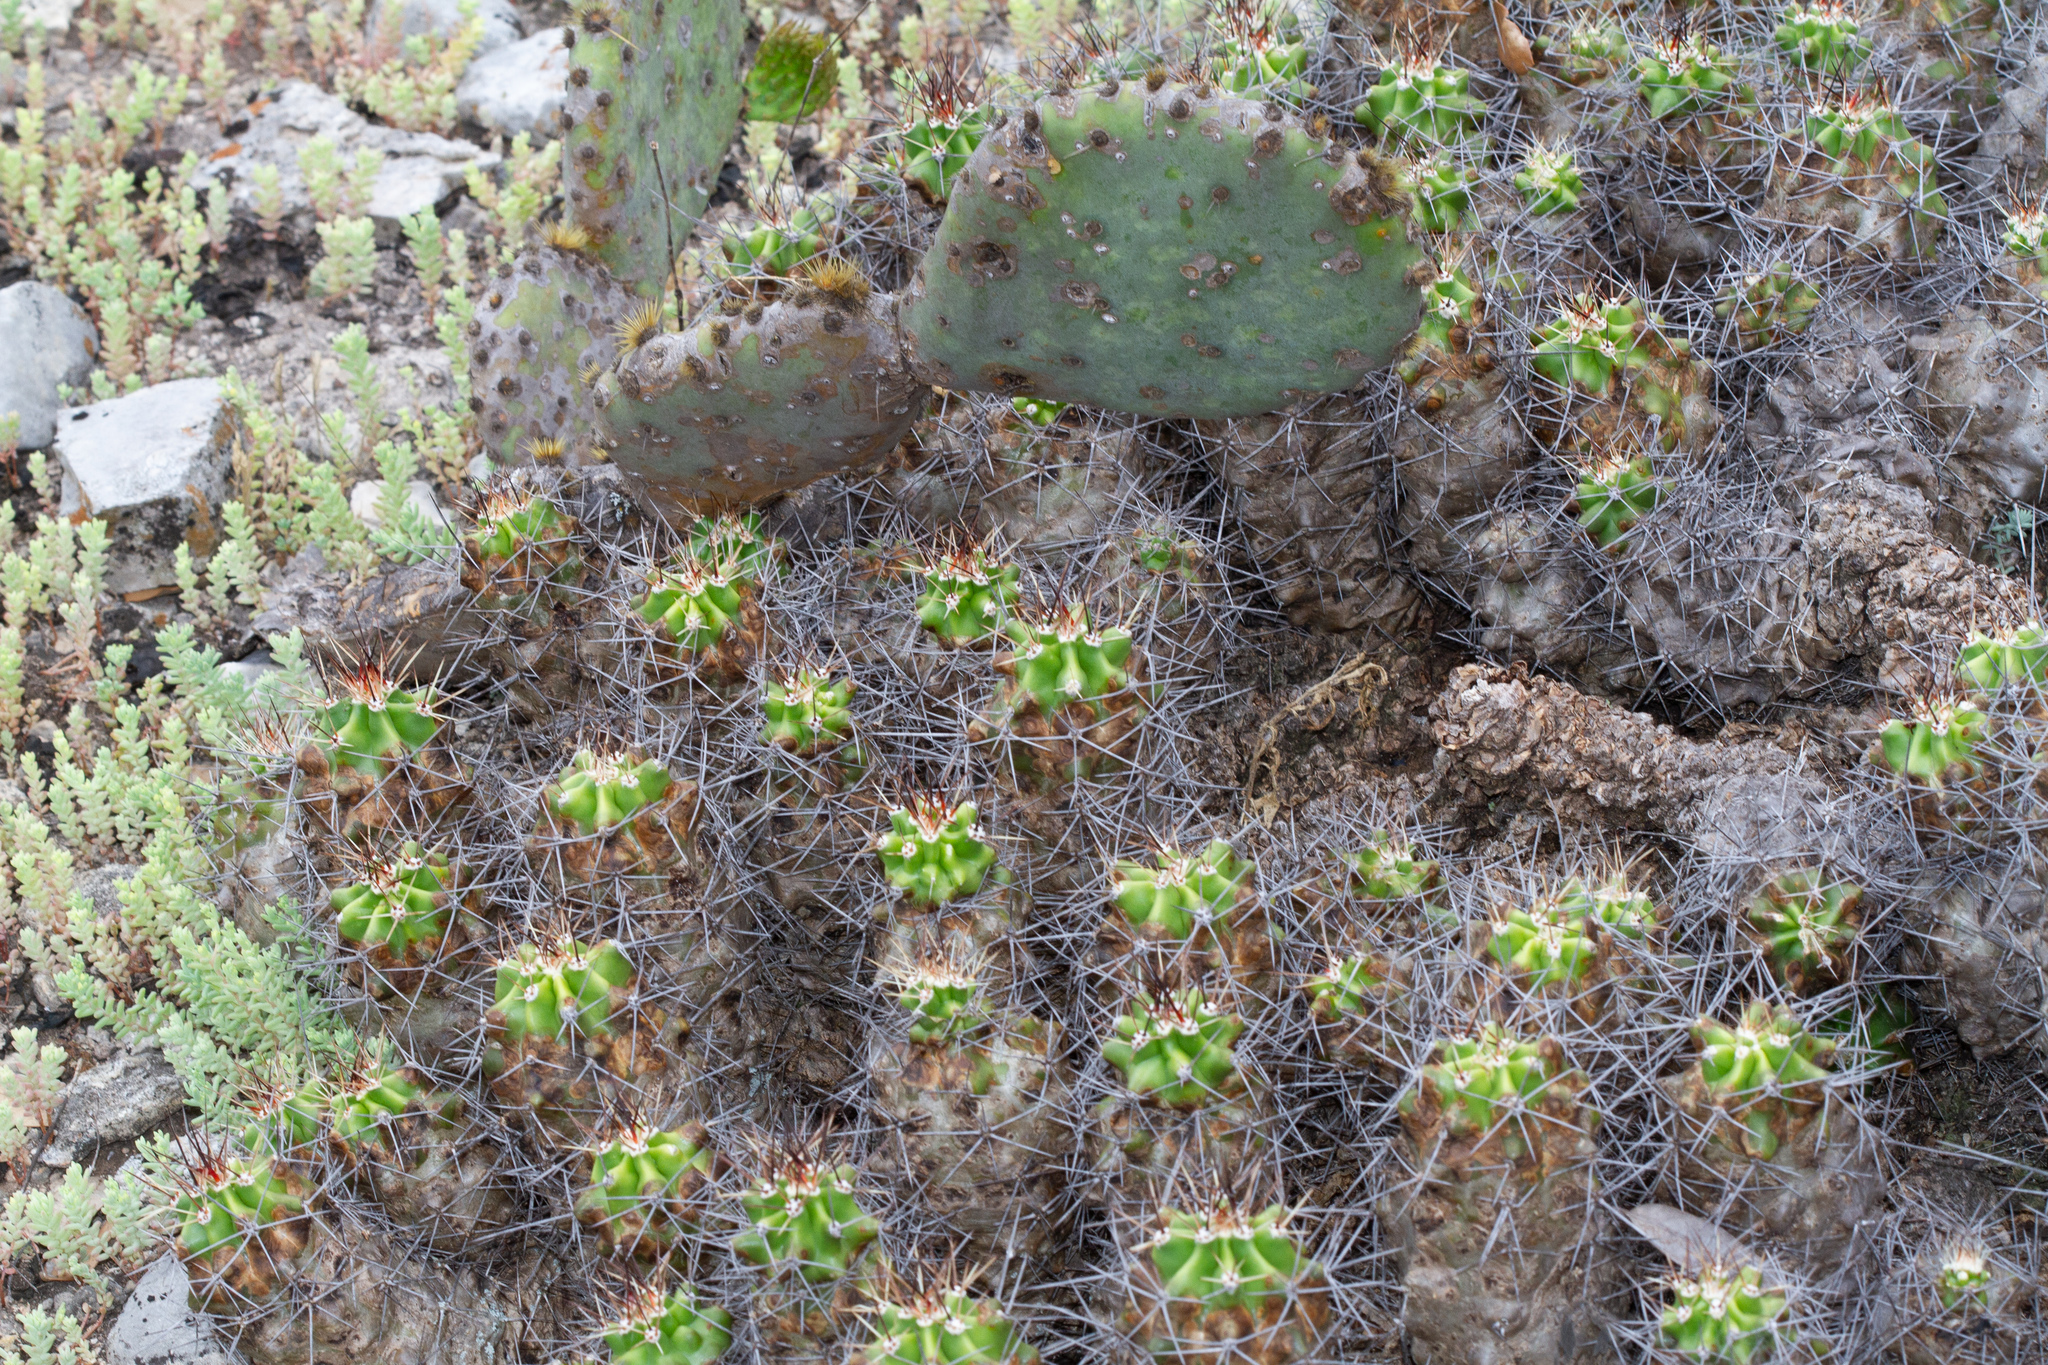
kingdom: Plantae
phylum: Tracheophyta
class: Magnoliopsida
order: Caryophyllales
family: Cactaceae
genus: Echinocereus
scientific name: Echinocereus coccineus
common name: Scarlet hedgehog cactus
